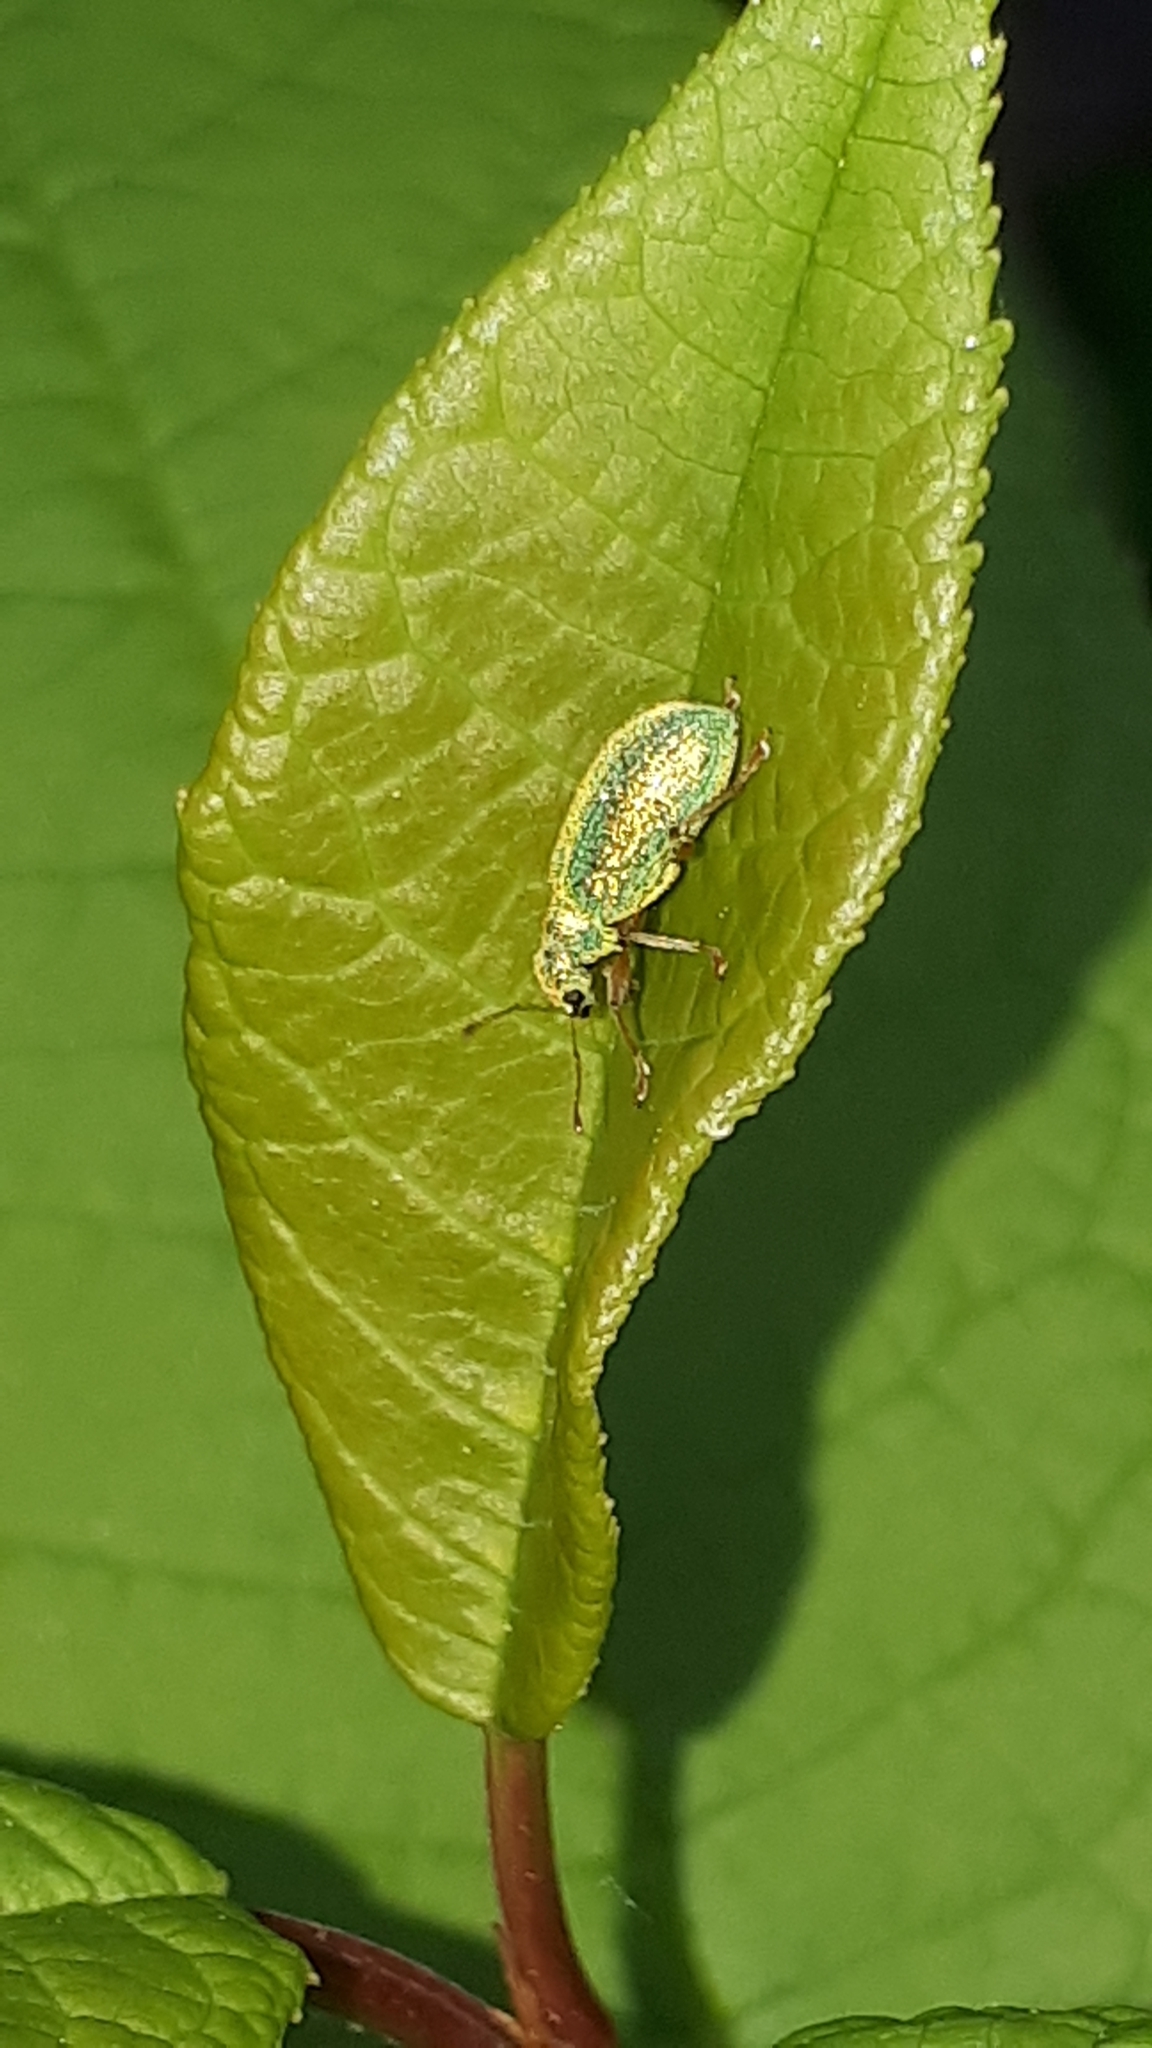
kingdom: Animalia
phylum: Arthropoda
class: Insecta
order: Coleoptera
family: Curculionidae
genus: Polydrusus
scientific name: Polydrusus pterygomalis
